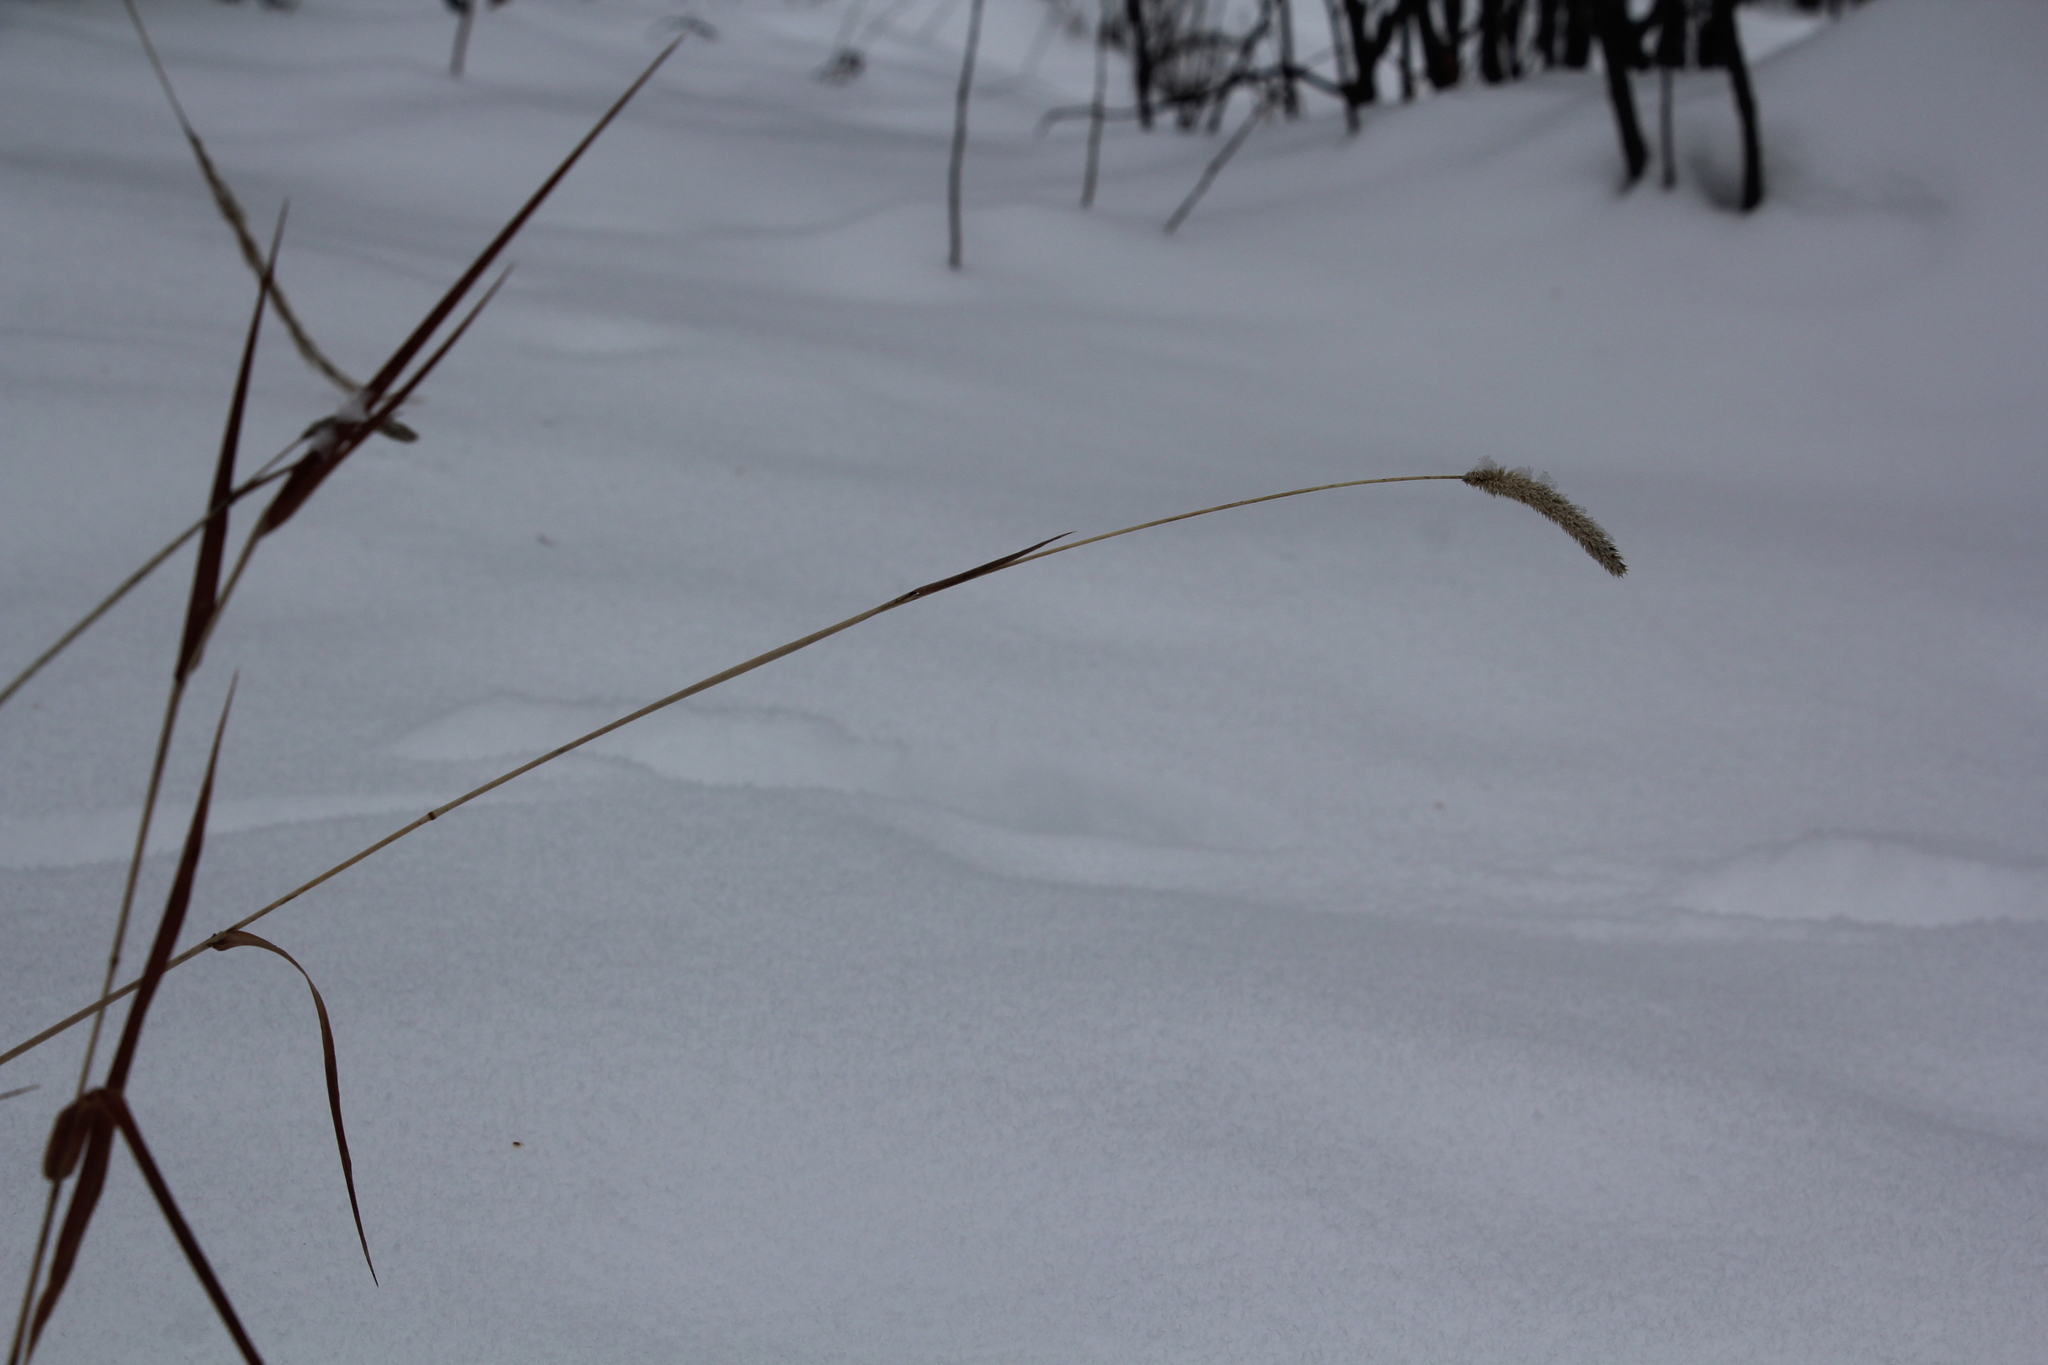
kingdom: Plantae
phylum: Tracheophyta
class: Liliopsida
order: Poales
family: Poaceae
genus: Phleum
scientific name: Phleum pratense
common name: Timothy grass
